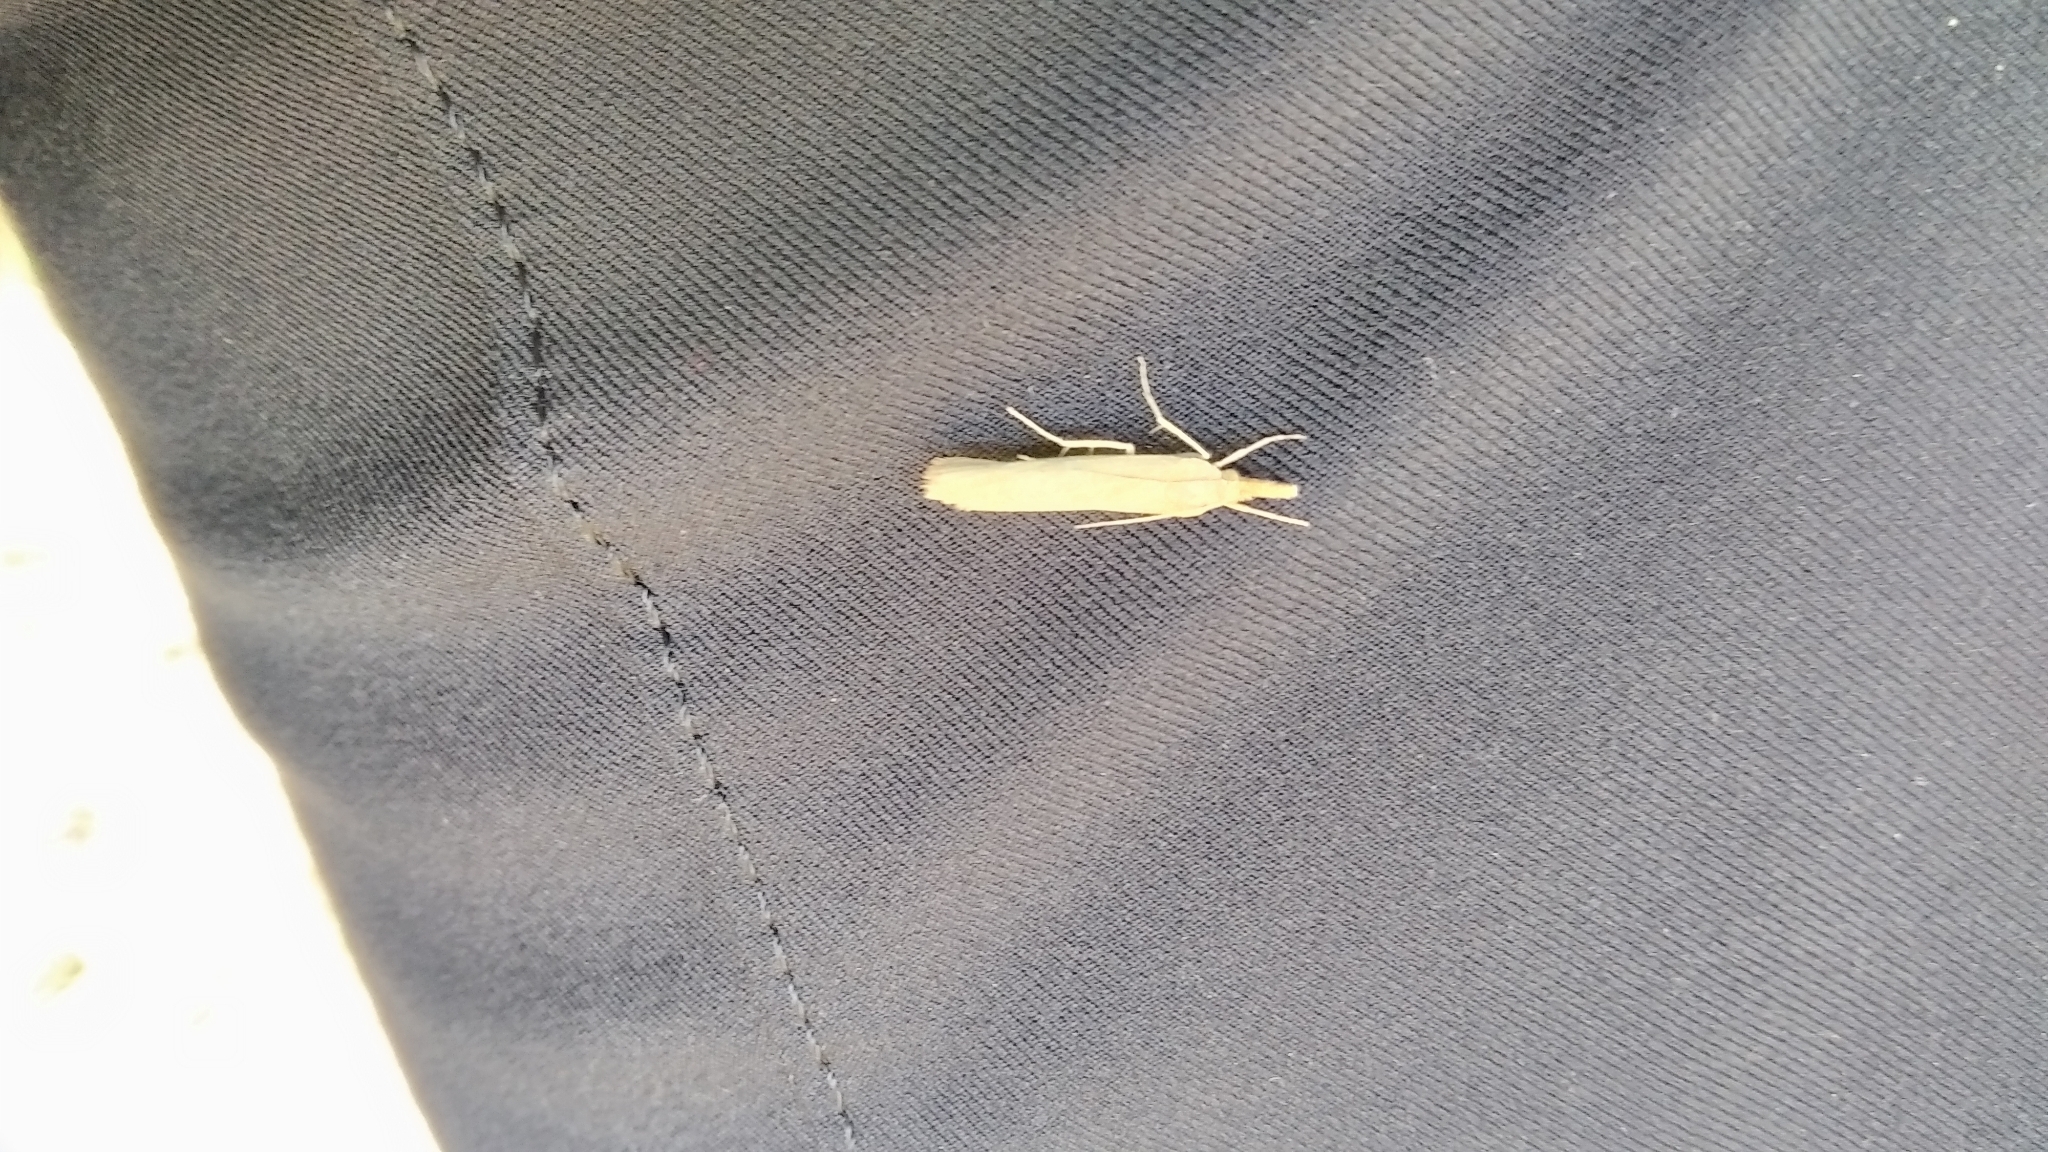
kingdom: Animalia
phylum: Arthropoda
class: Insecta
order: Lepidoptera
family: Crambidae
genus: Pediasia
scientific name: Pediasia luteella
